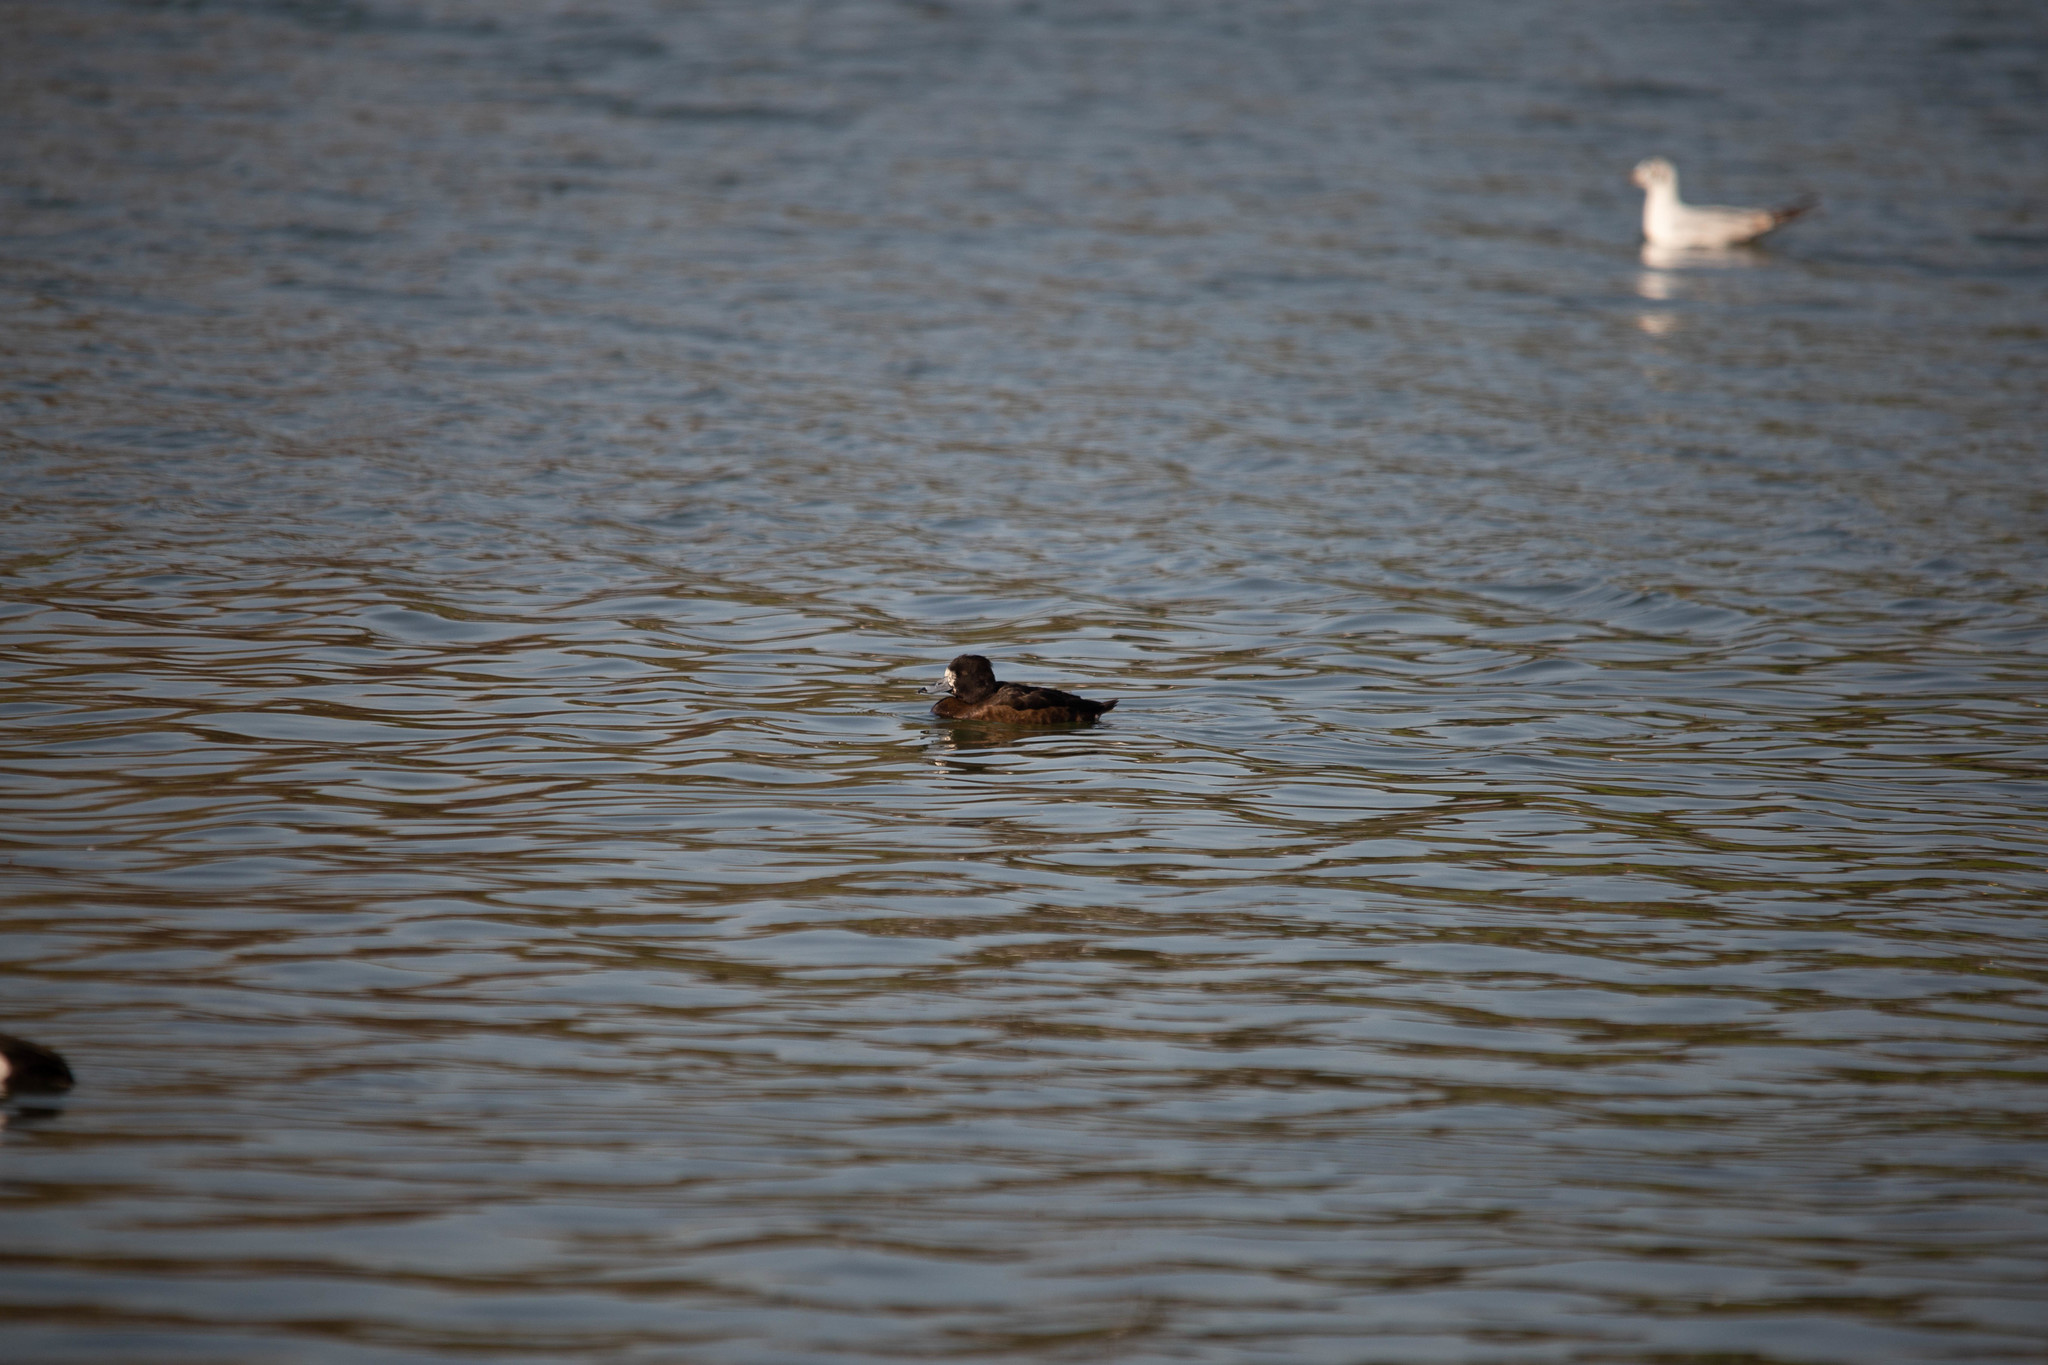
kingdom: Animalia
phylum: Chordata
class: Aves
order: Anseriformes
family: Anatidae
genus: Aythya
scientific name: Aythya fuligula
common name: Tufted duck
